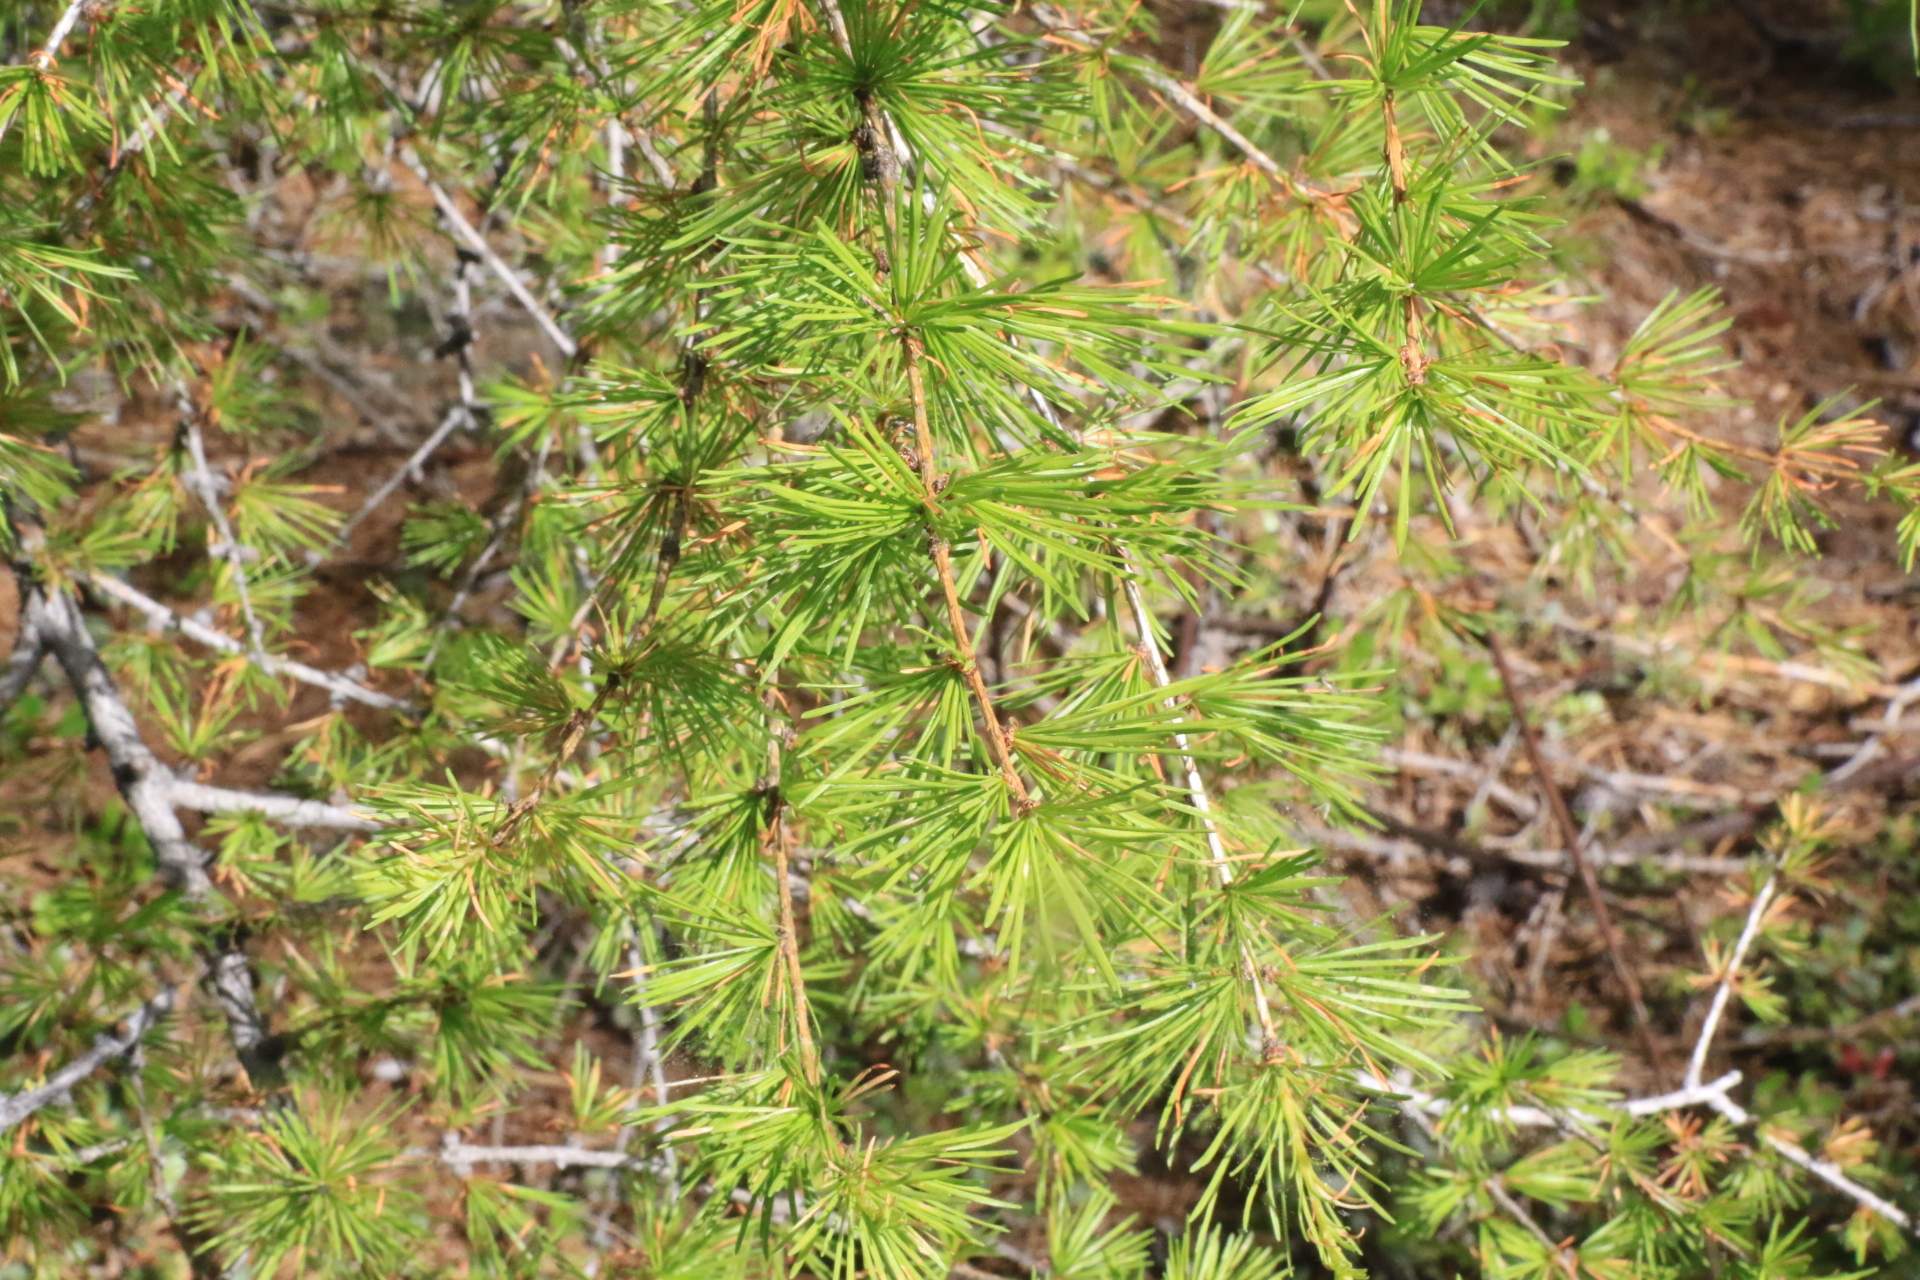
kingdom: Plantae
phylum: Tracheophyta
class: Pinopsida
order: Pinales
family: Pinaceae
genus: Larix
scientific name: Larix occidentalis
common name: Western larch
